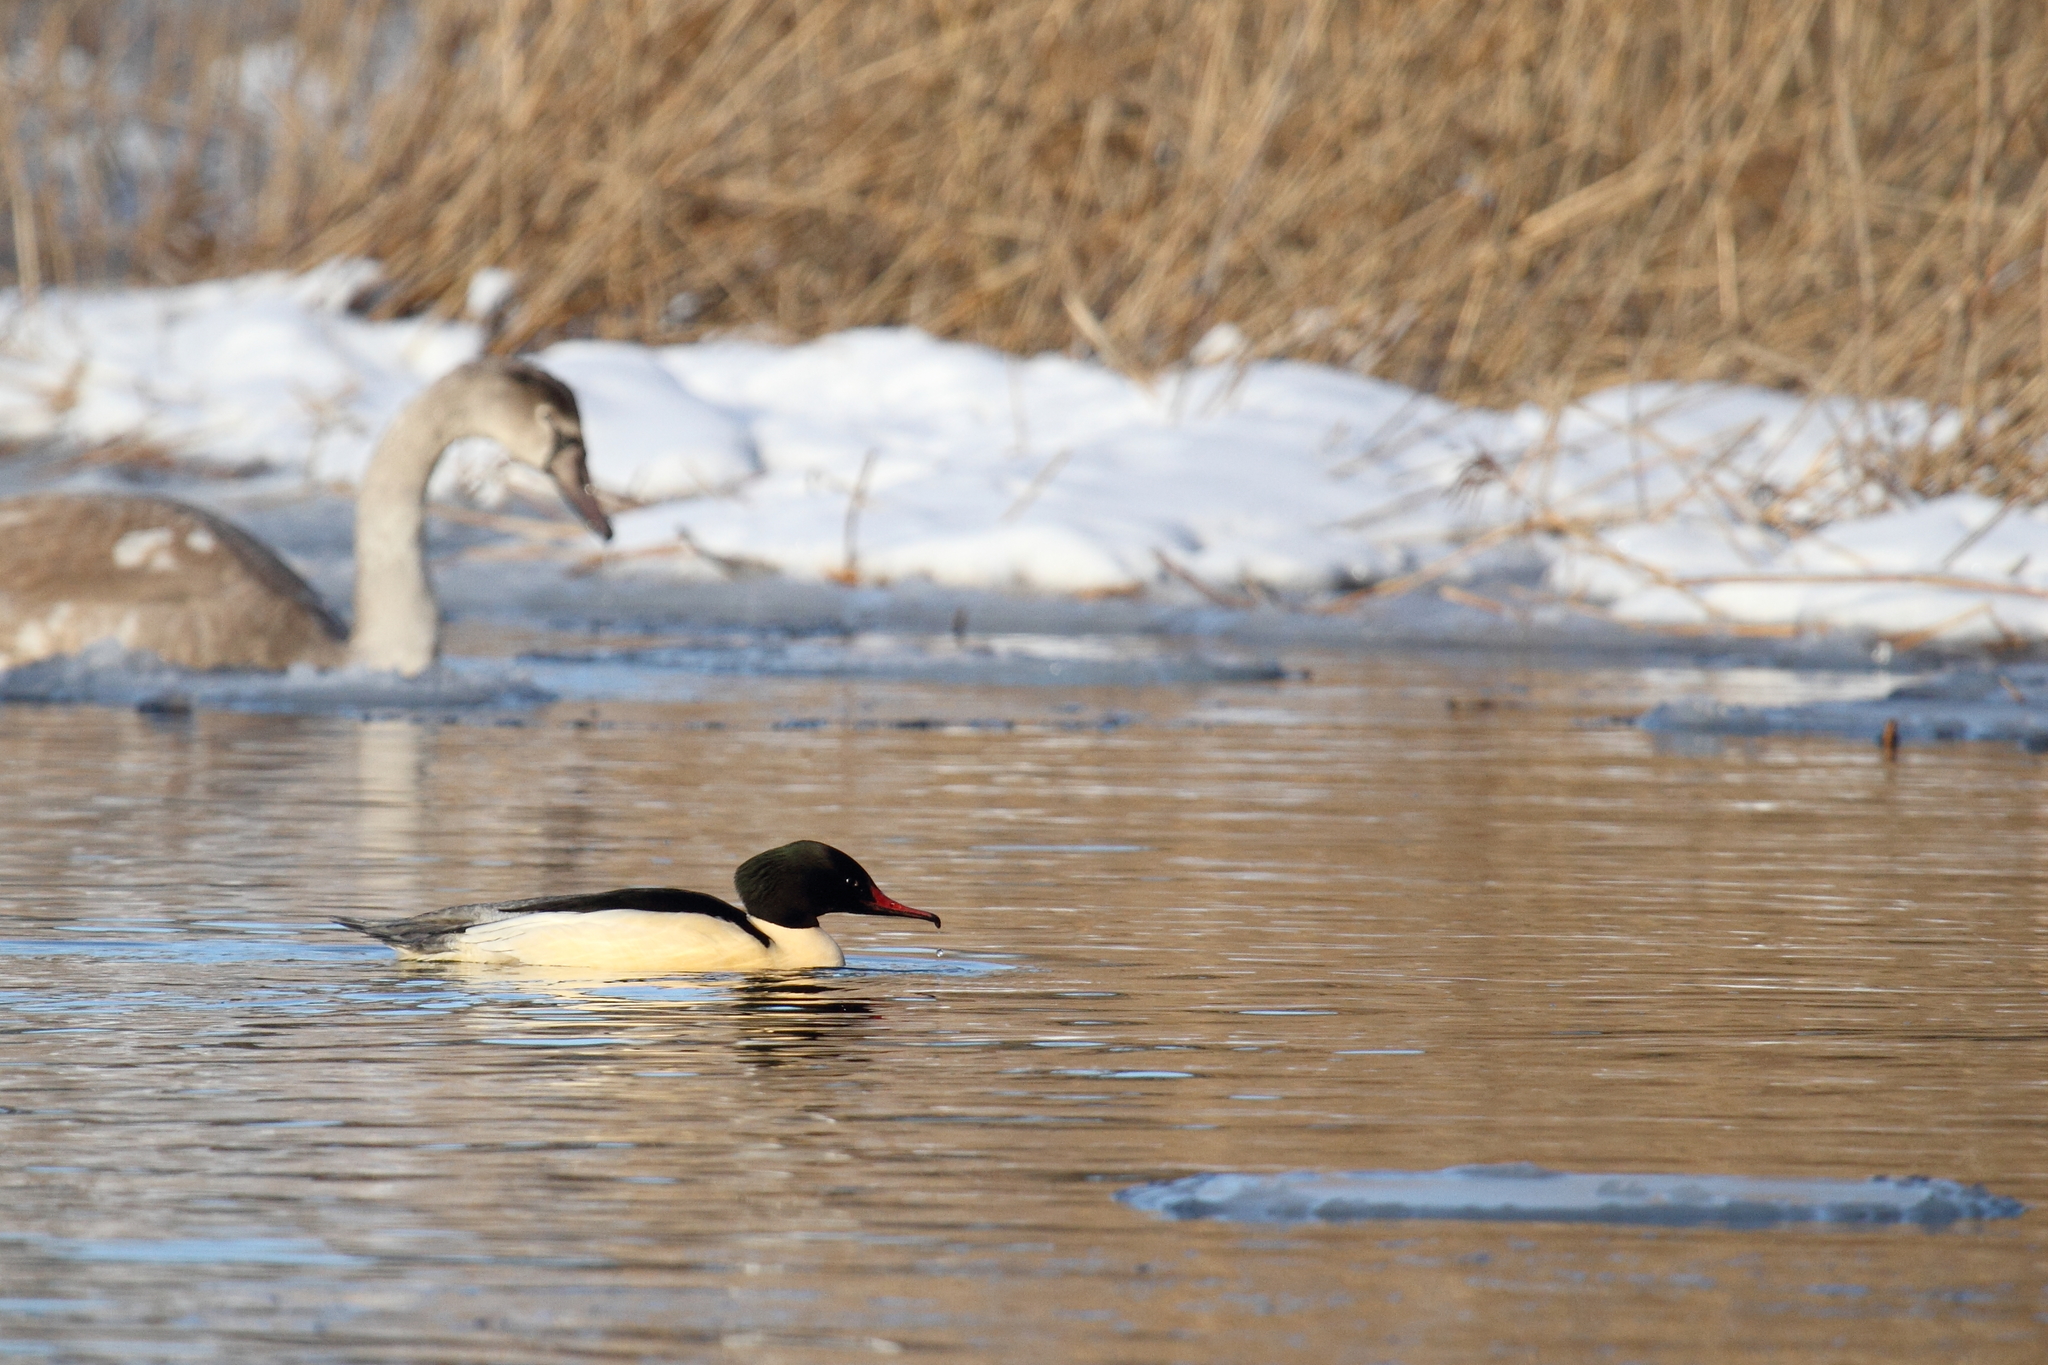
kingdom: Animalia
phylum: Chordata
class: Aves
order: Anseriformes
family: Anatidae
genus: Mergus
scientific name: Mergus merganser
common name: Common merganser
